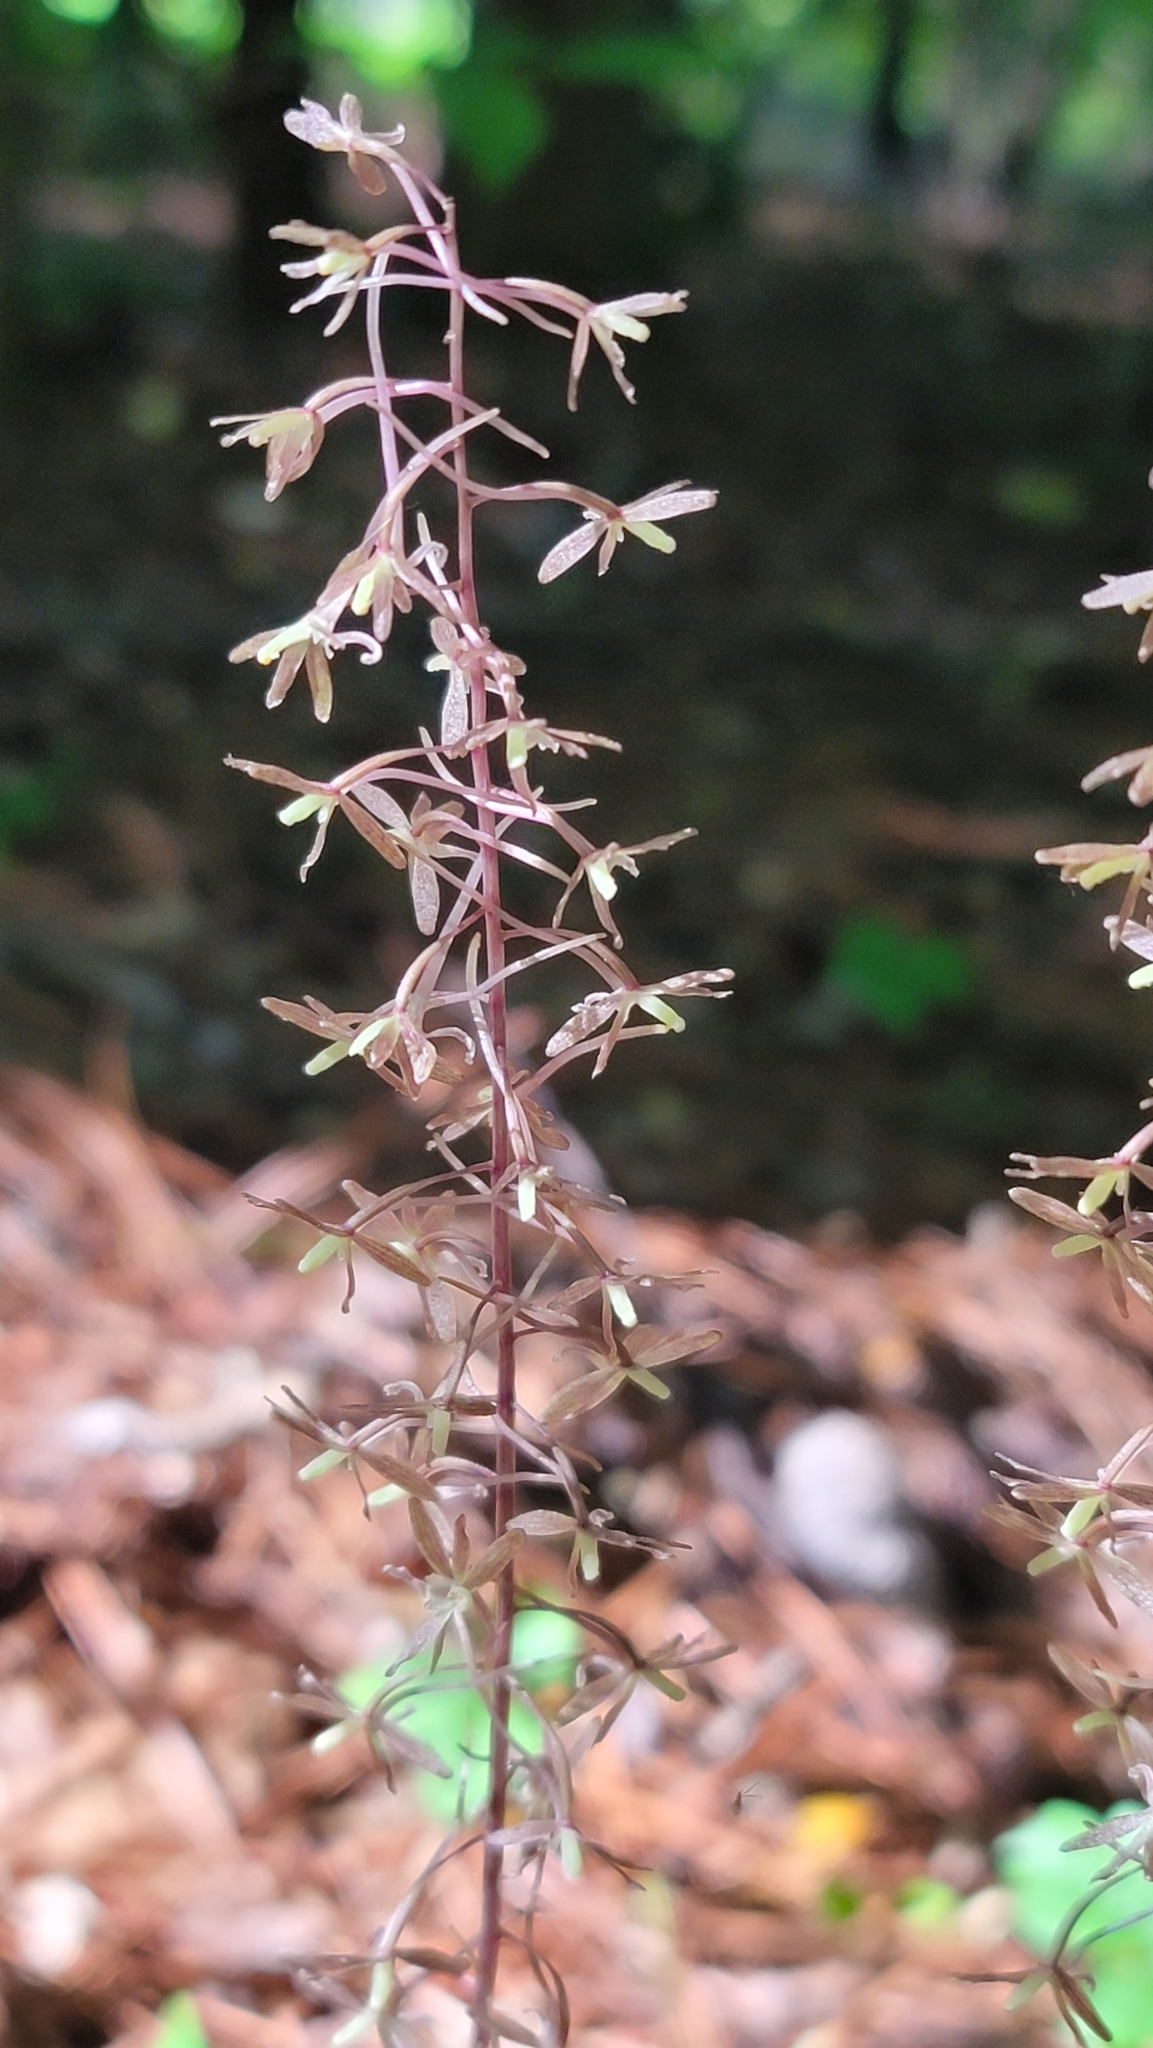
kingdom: Plantae
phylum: Tracheophyta
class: Liliopsida
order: Asparagales
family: Orchidaceae
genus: Tipularia
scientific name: Tipularia discolor
